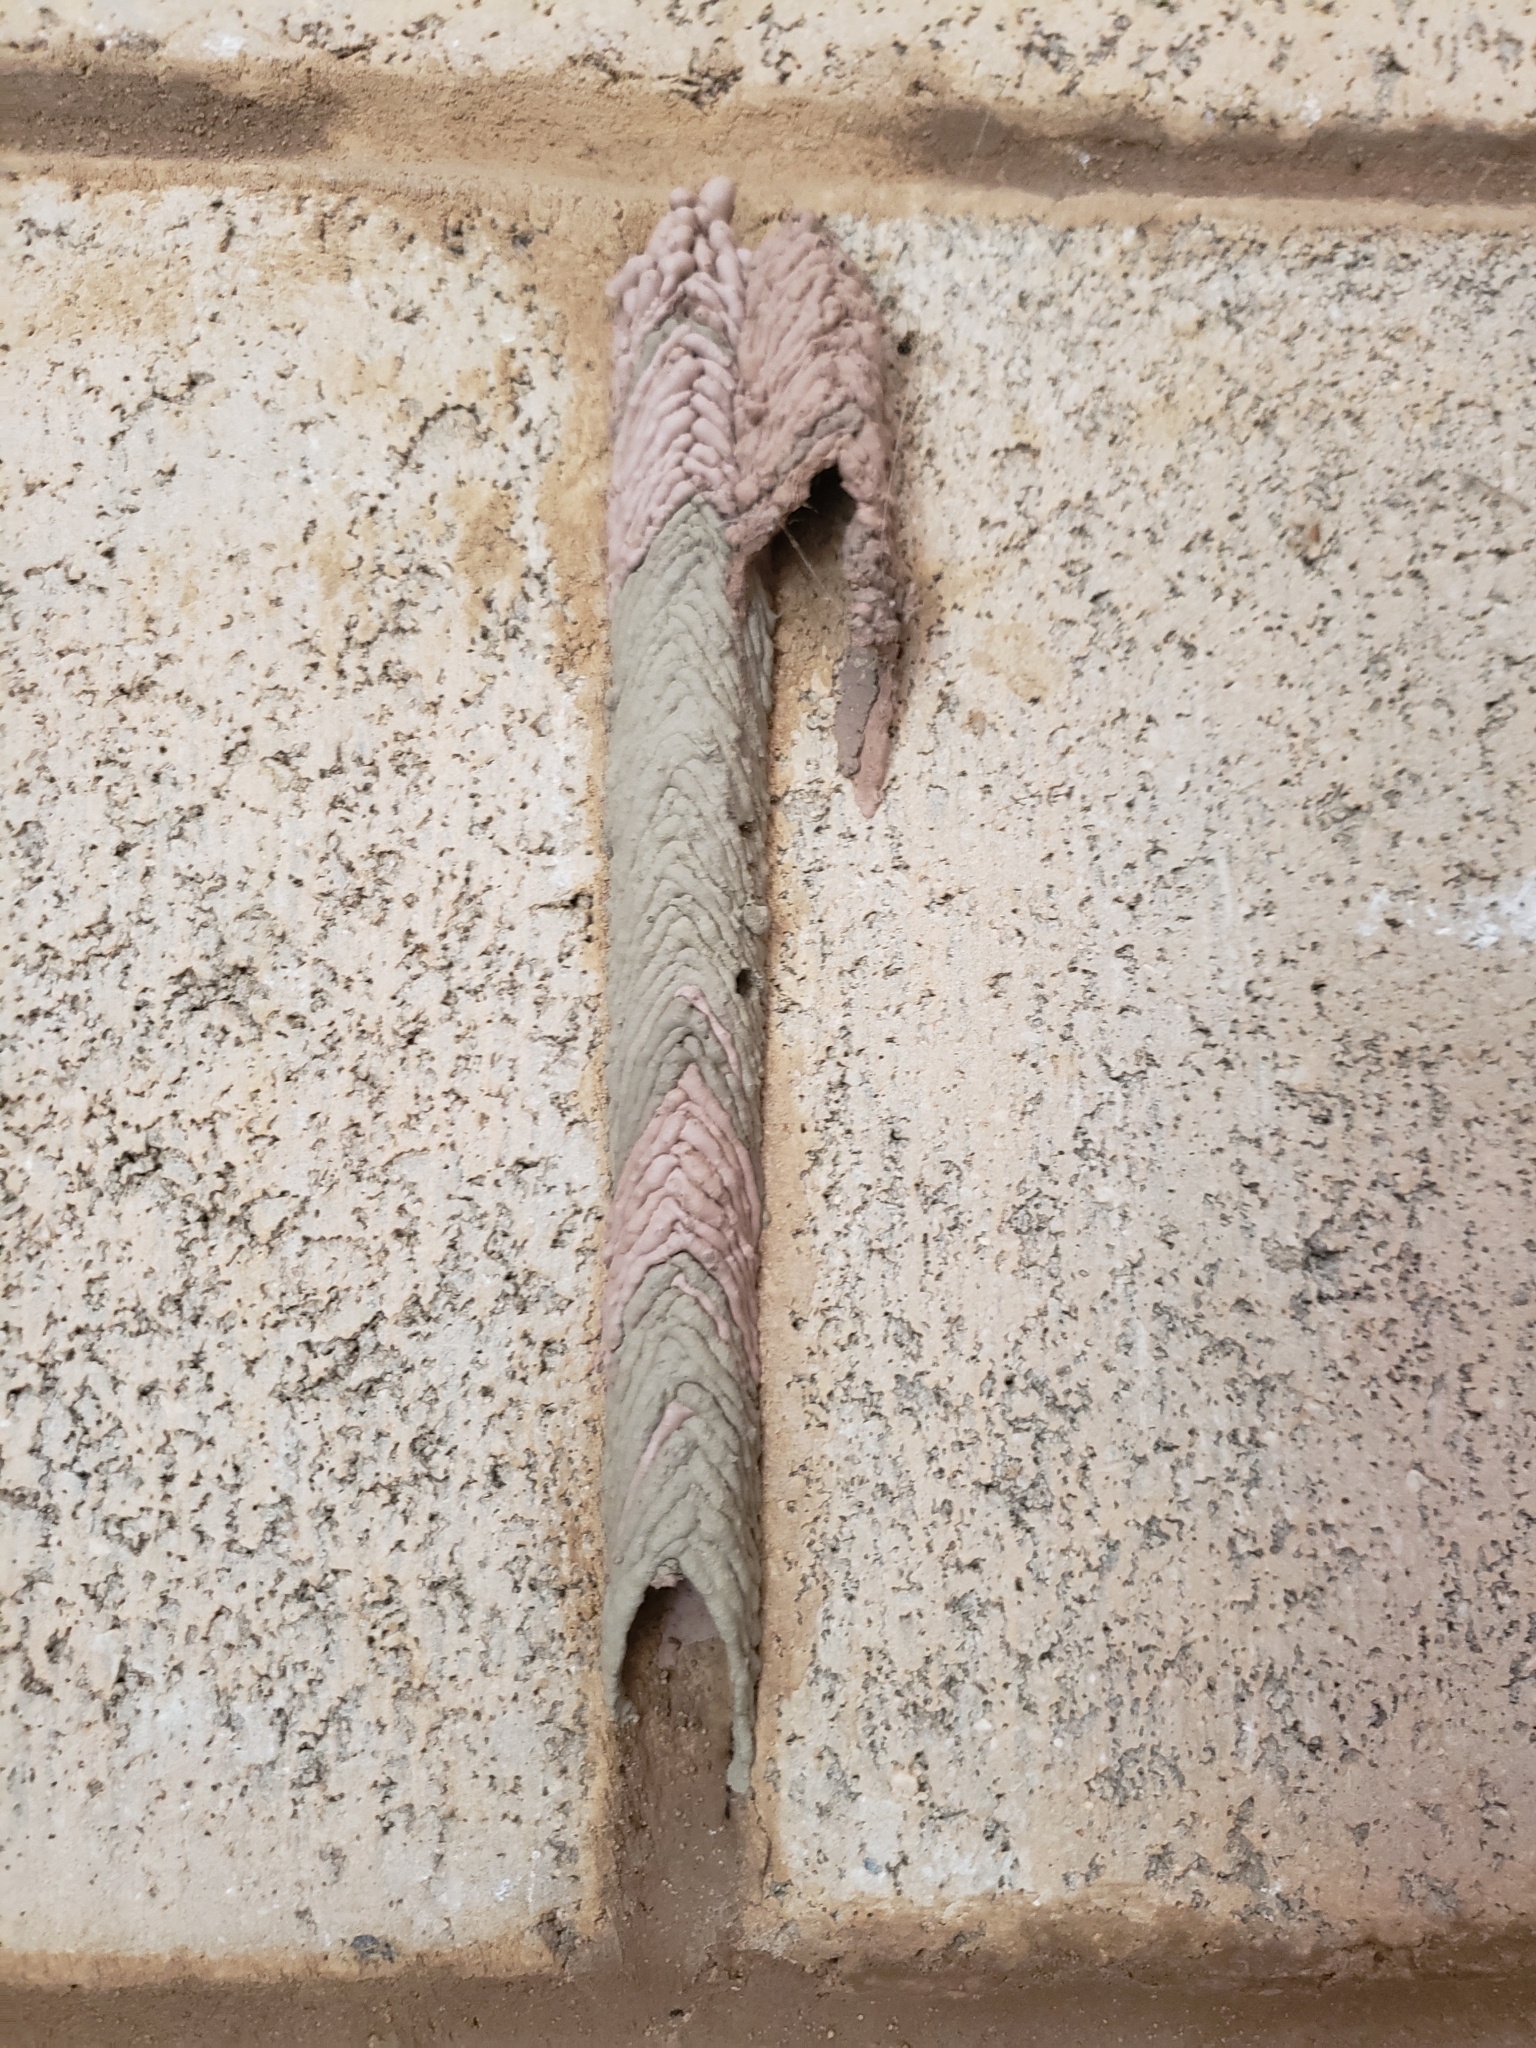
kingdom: Animalia
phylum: Arthropoda
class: Insecta
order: Hymenoptera
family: Crabronidae
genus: Trypoxylon
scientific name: Trypoxylon politum
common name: Organ-pipe mud-dauber wasp
